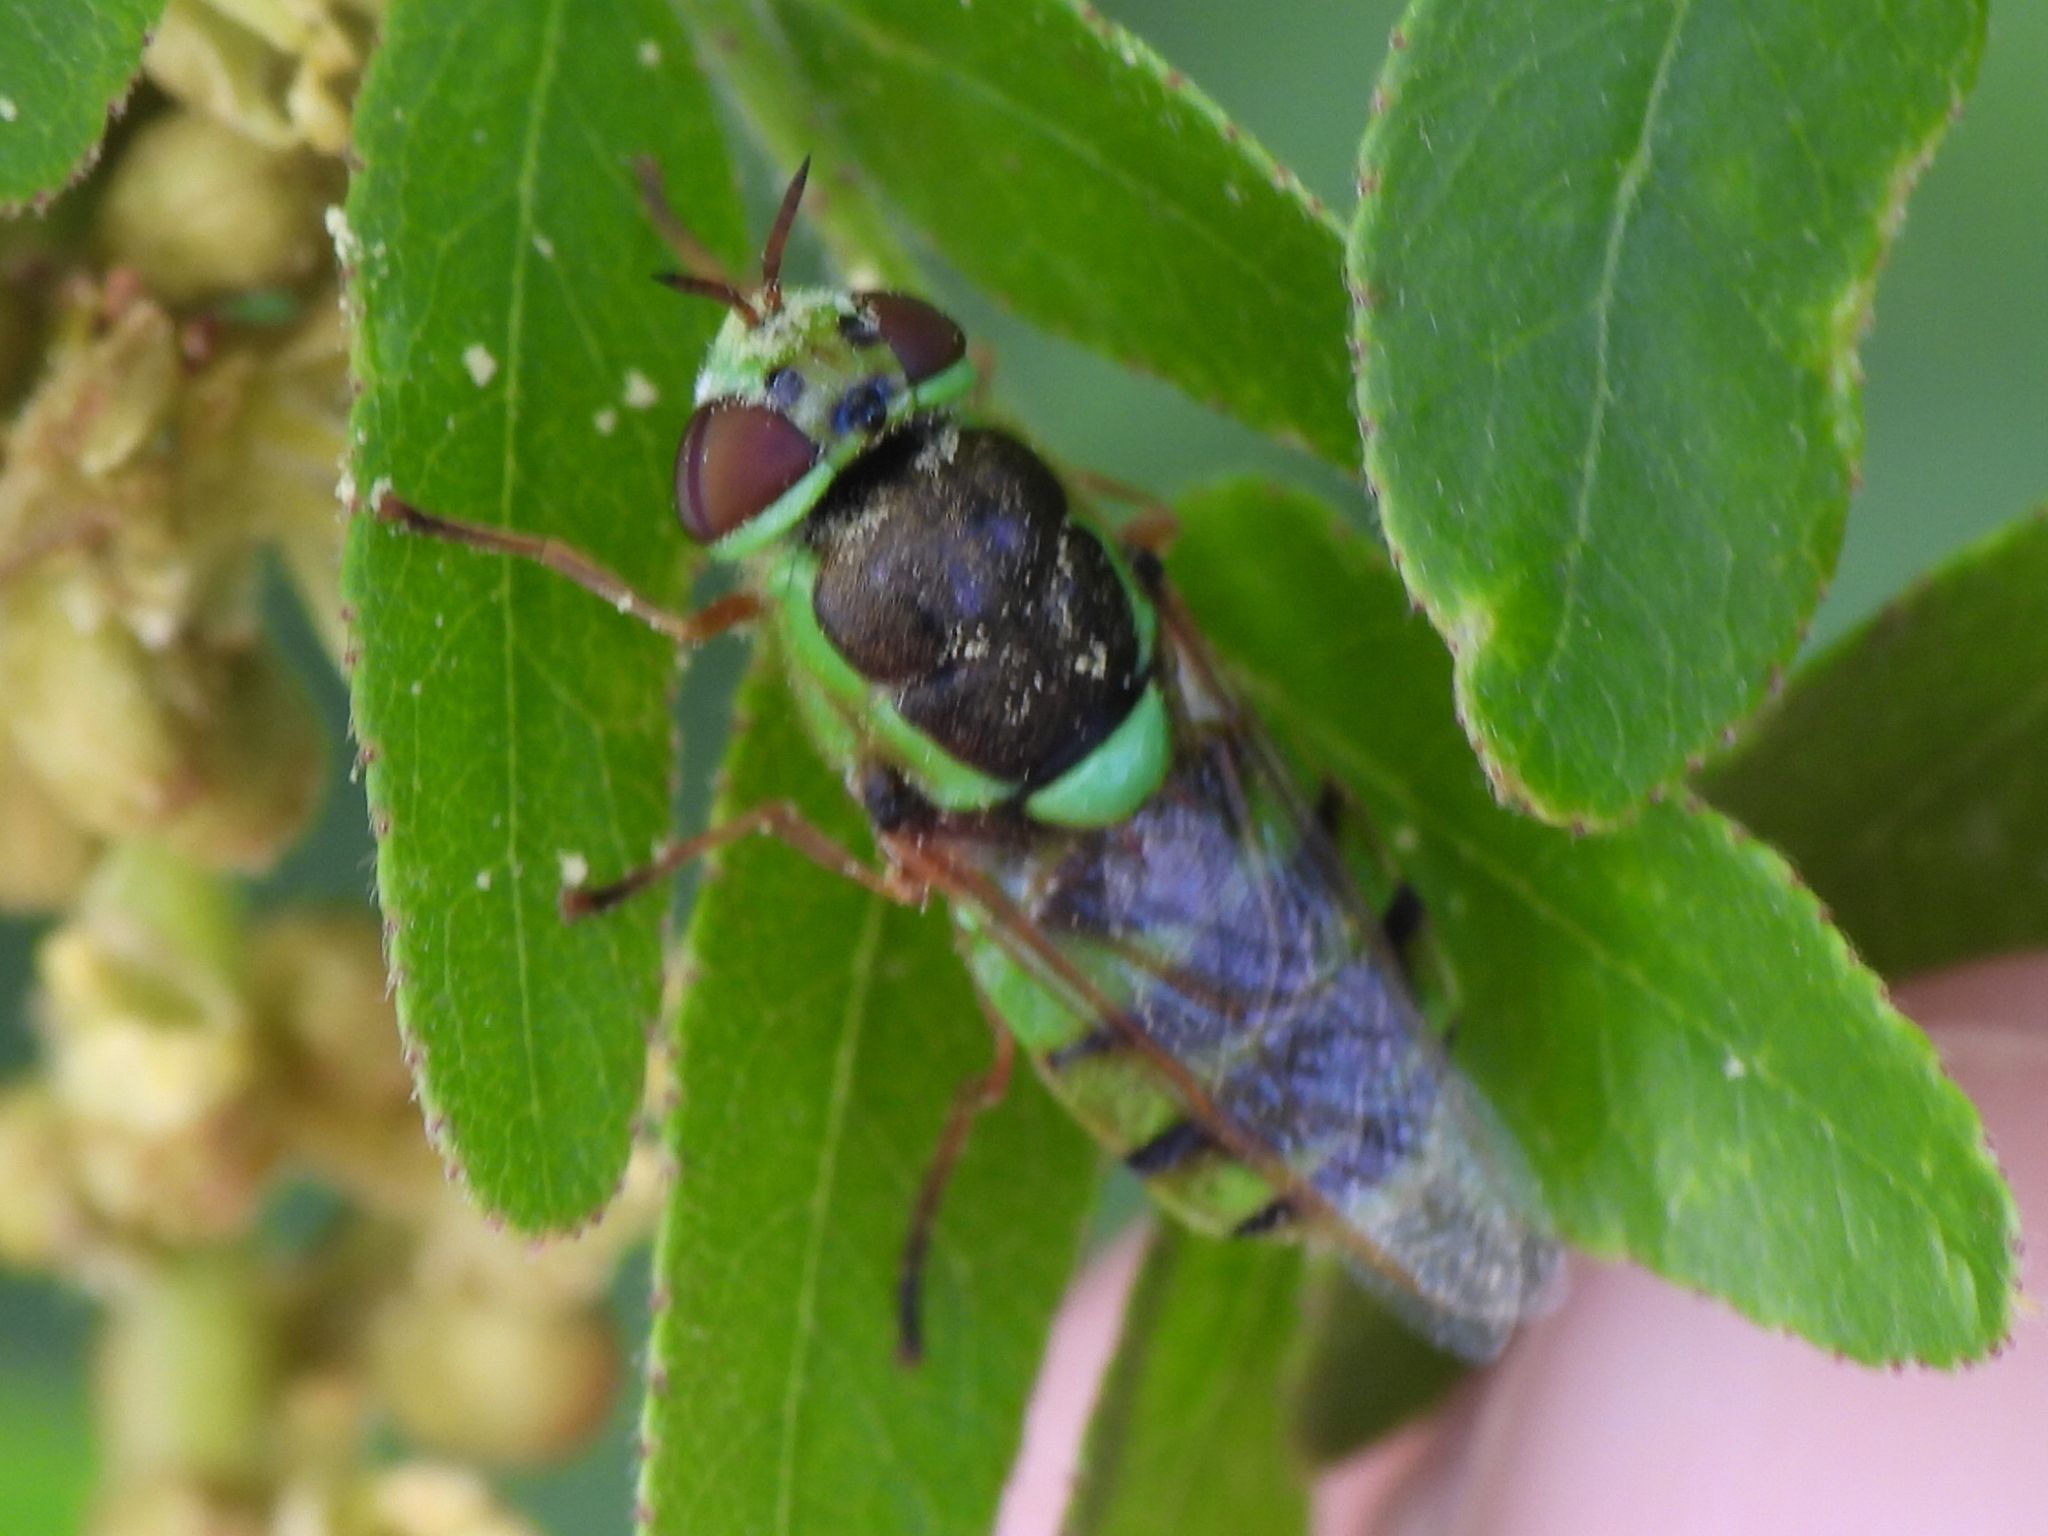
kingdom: Animalia
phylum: Arthropoda
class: Insecta
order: Diptera
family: Stratiomyidae
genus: Odontomyia
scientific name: Odontomyia cincta
